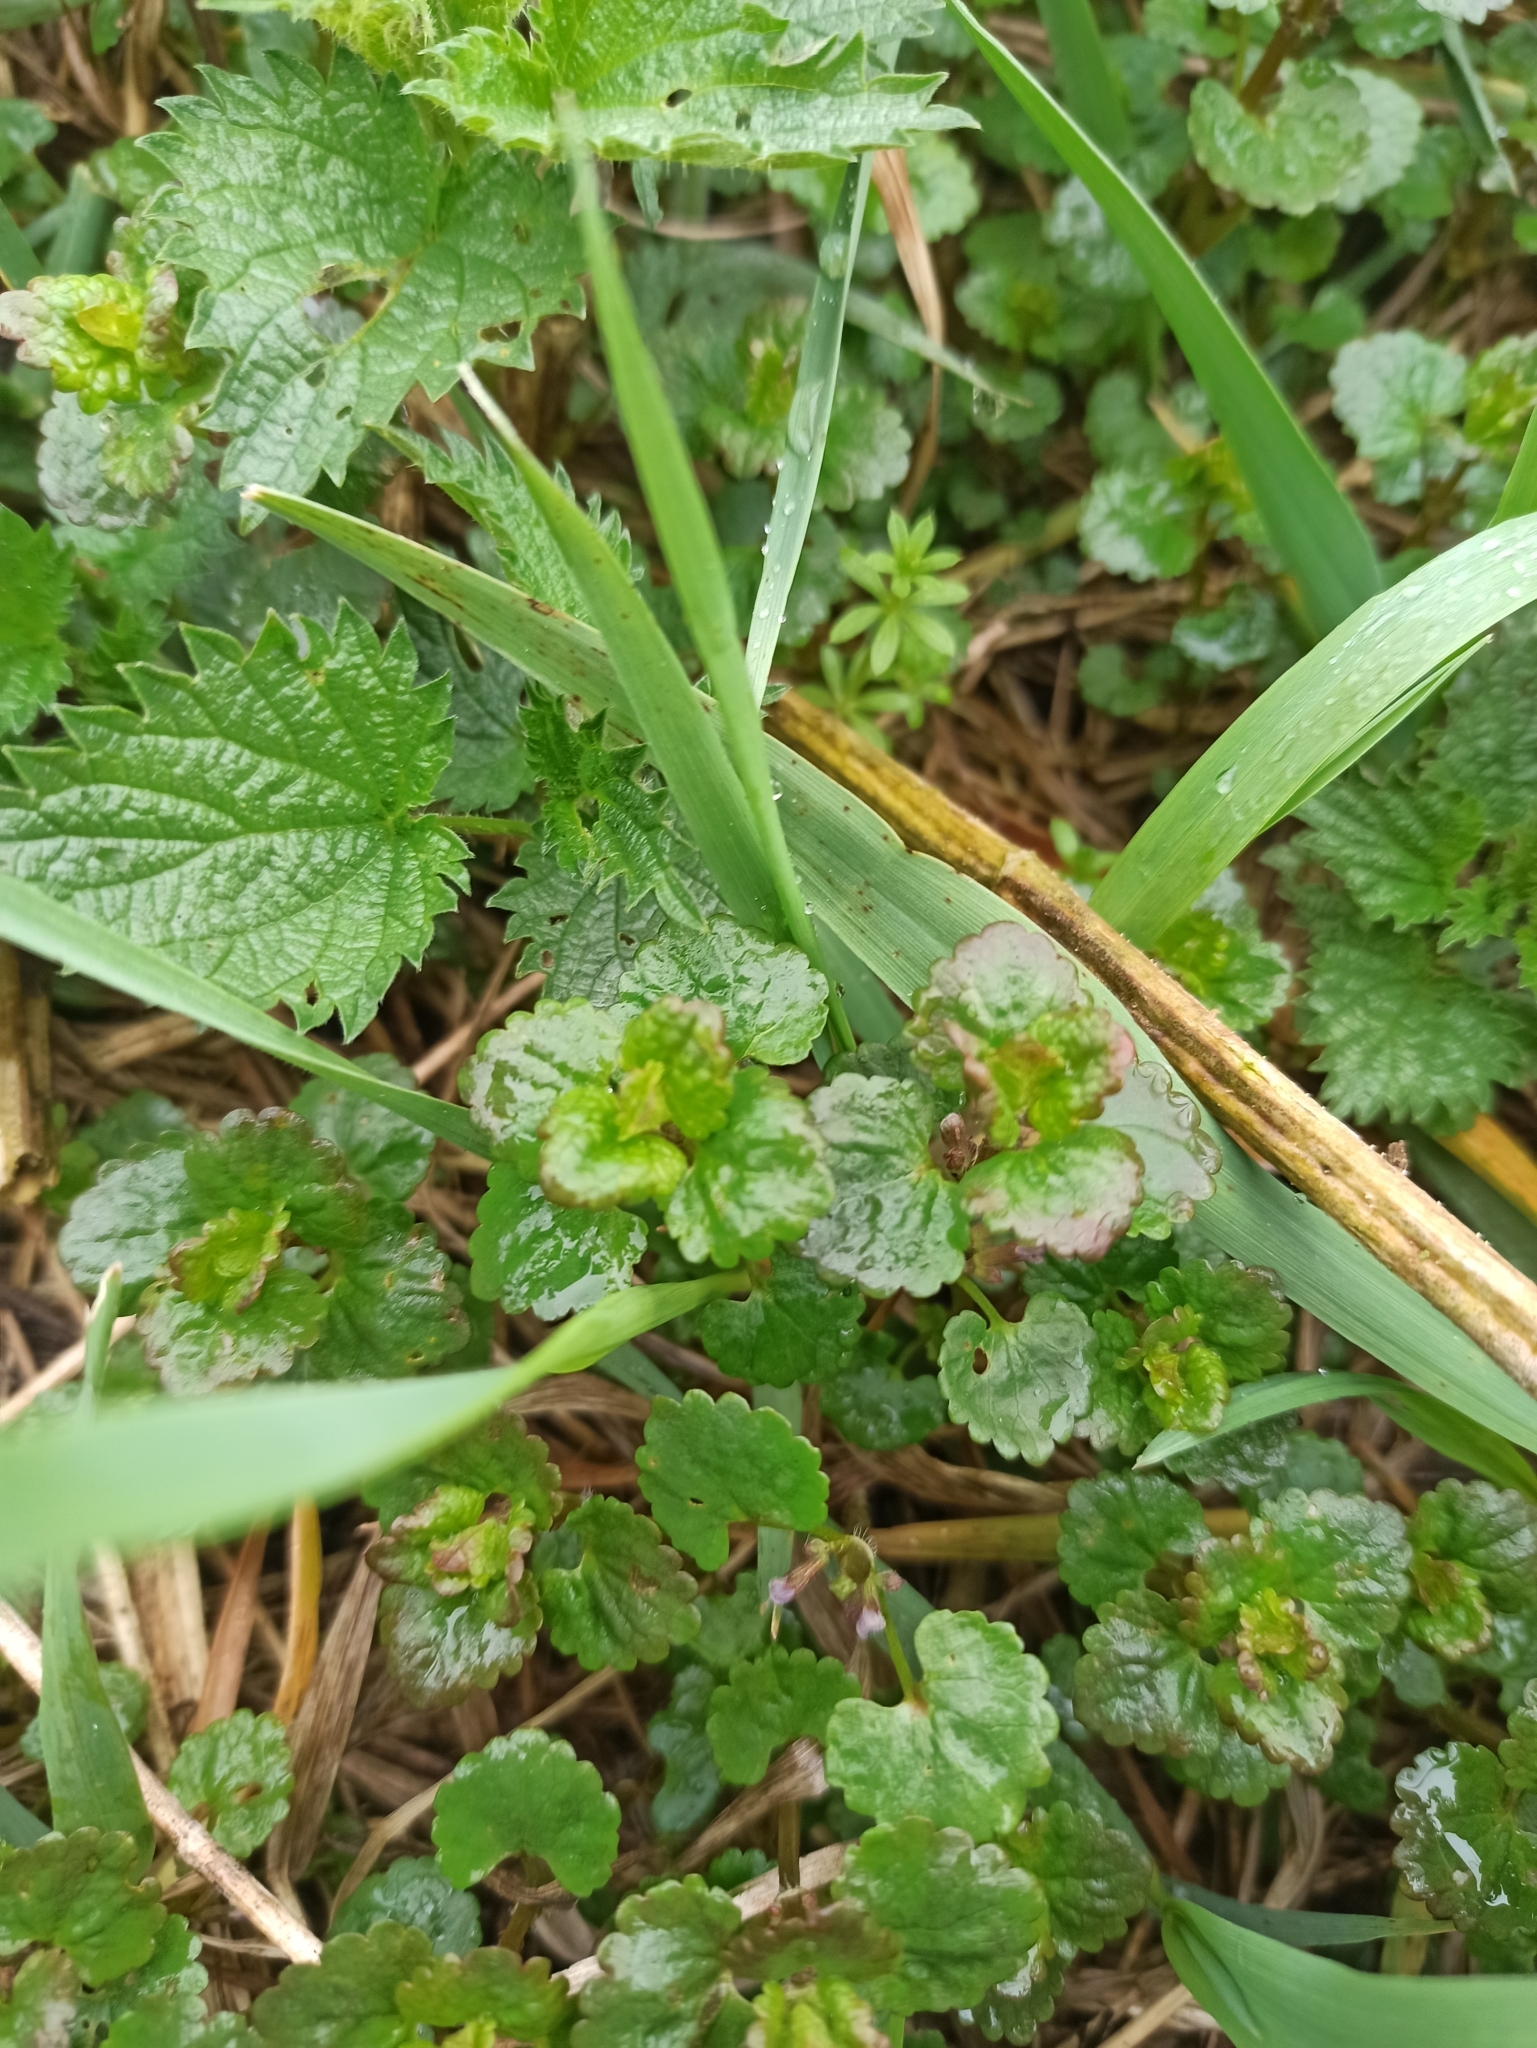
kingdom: Plantae
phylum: Tracheophyta
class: Magnoliopsida
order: Lamiales
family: Lamiaceae
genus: Glechoma
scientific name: Glechoma hederacea
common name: Ground ivy
